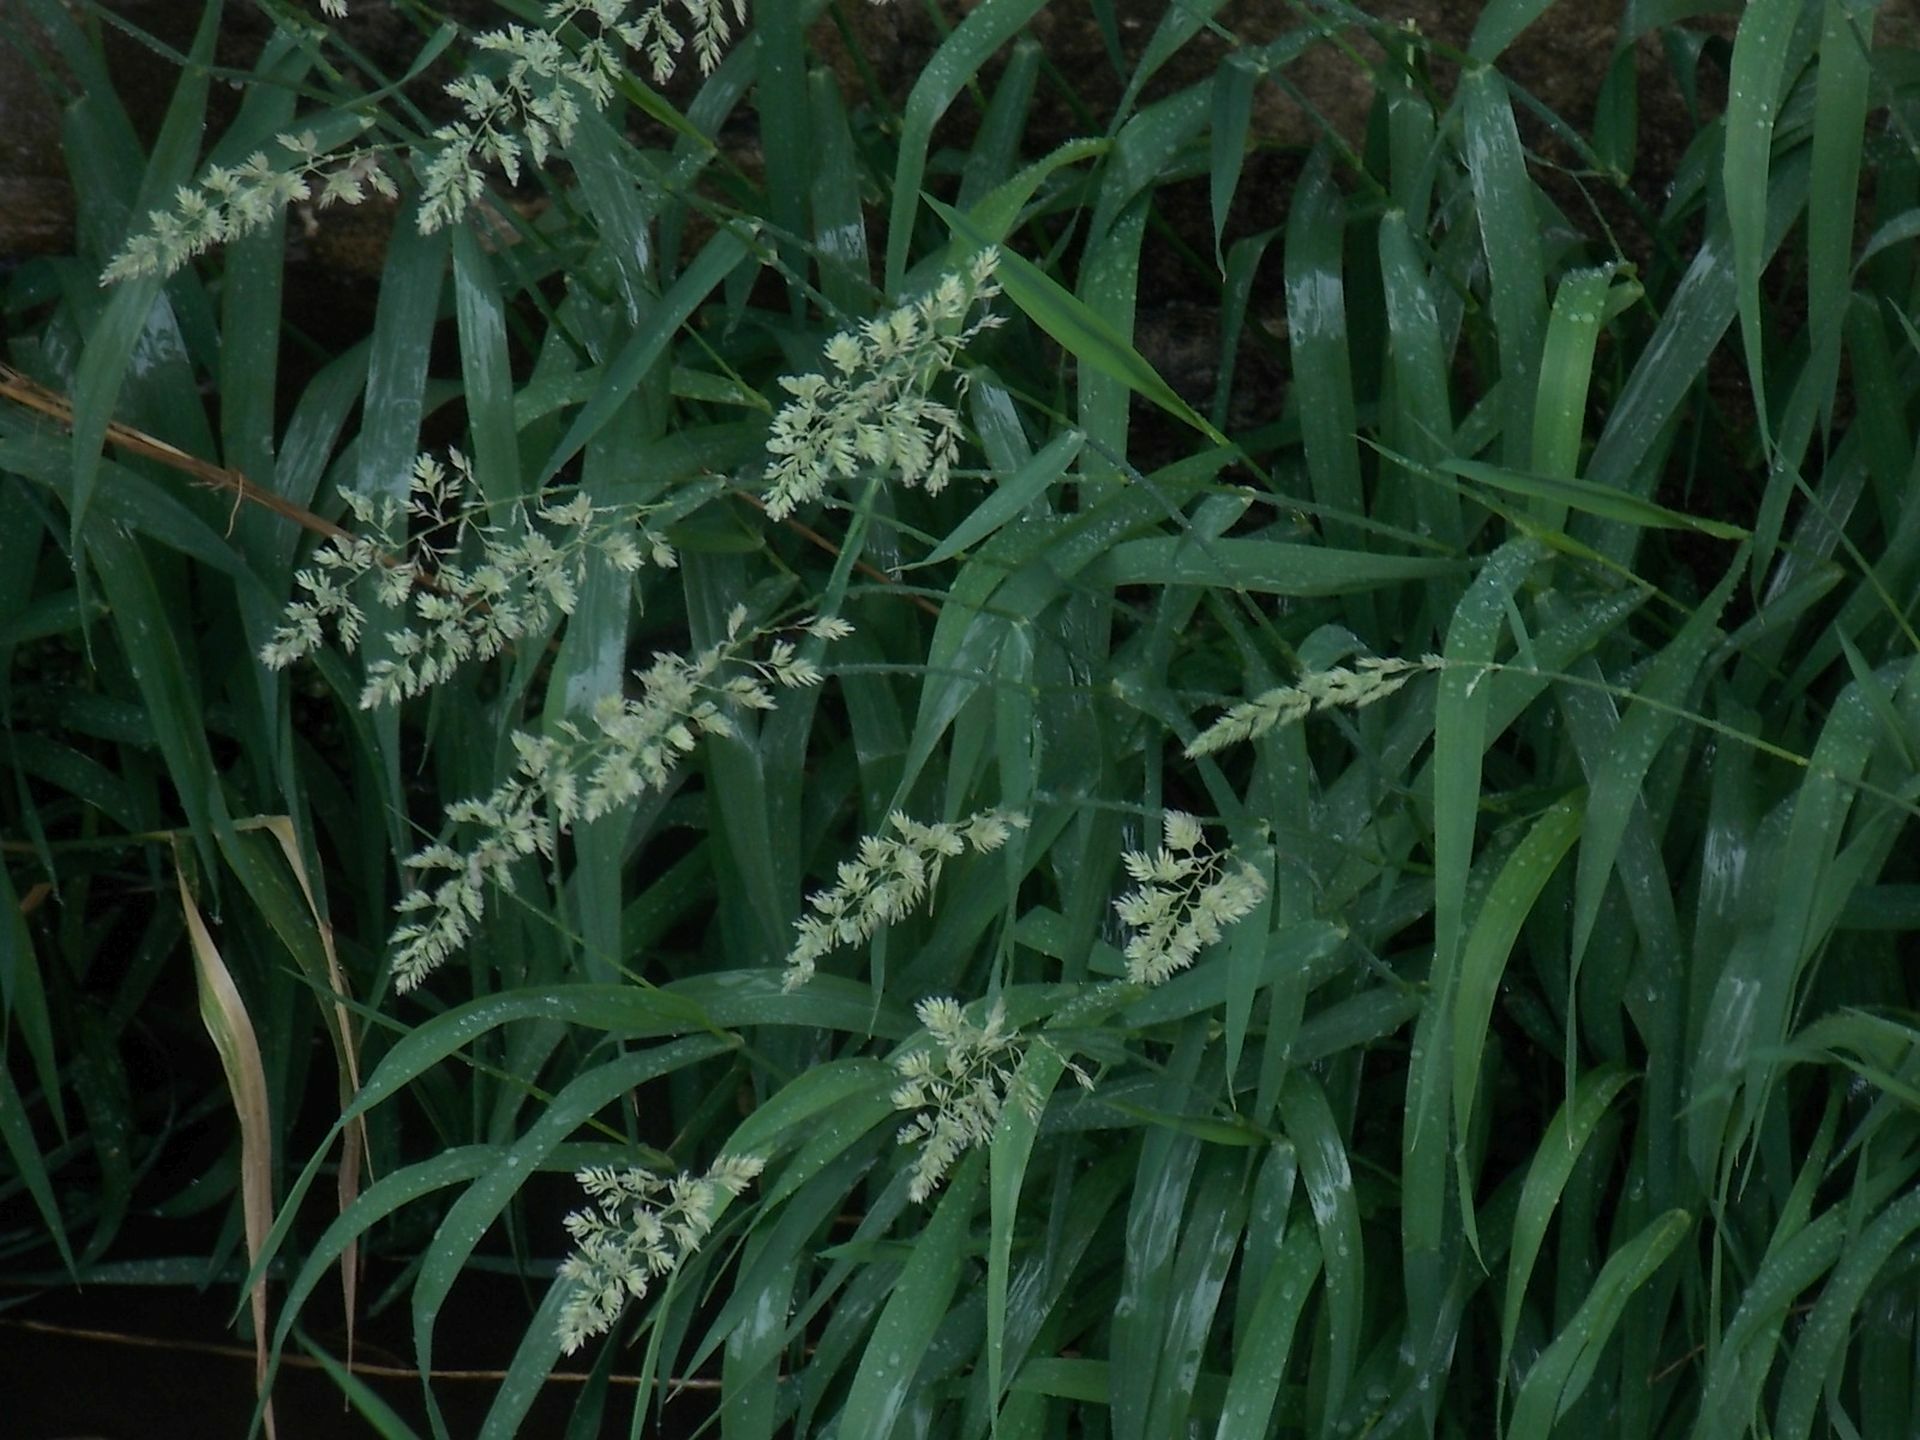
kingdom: Plantae
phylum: Tracheophyta
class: Liliopsida
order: Poales
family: Poaceae
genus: Phalaris
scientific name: Phalaris arundinacea
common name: Reed canary-grass
